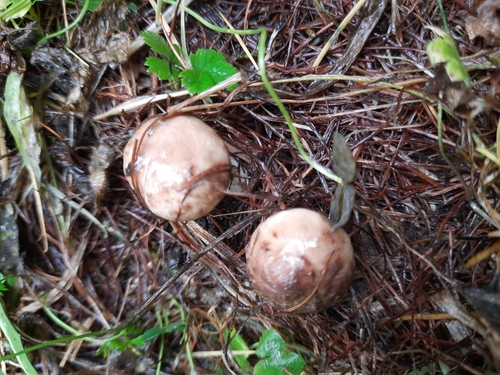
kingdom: Fungi
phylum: Basidiomycota
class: Agaricomycetes
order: Boletales
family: Suillaceae
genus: Suillus
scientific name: Suillus viscidus
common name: Sticky bolete
